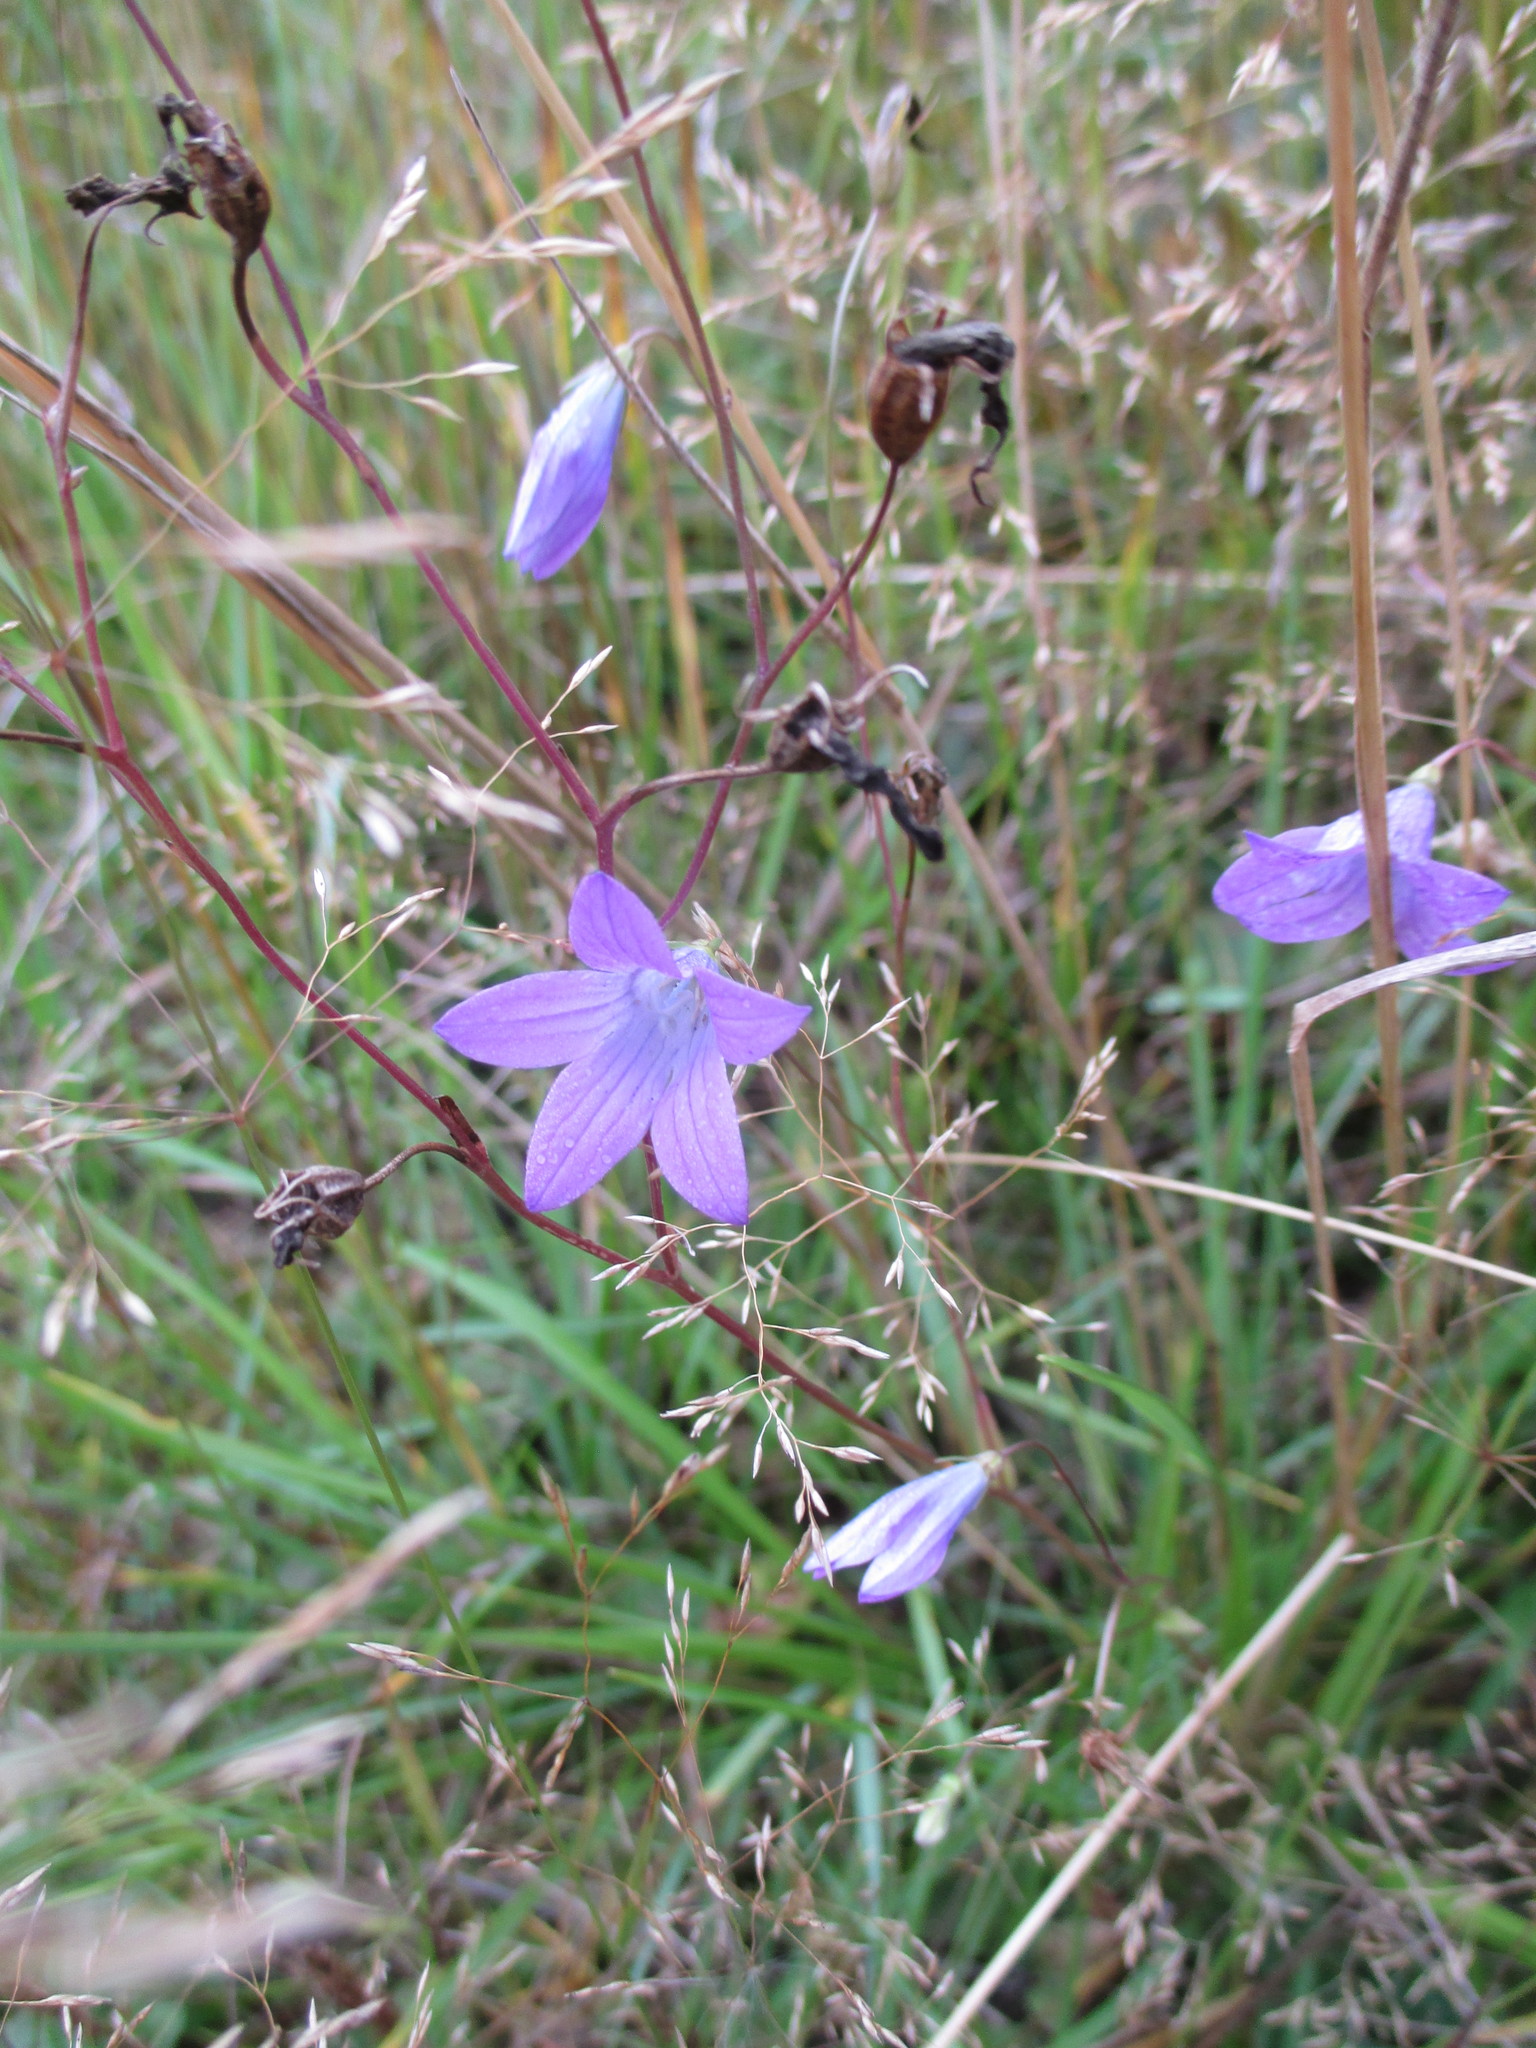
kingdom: Plantae
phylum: Tracheophyta
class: Magnoliopsida
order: Asterales
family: Campanulaceae
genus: Campanula
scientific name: Campanula patula
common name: Spreading bellflower
